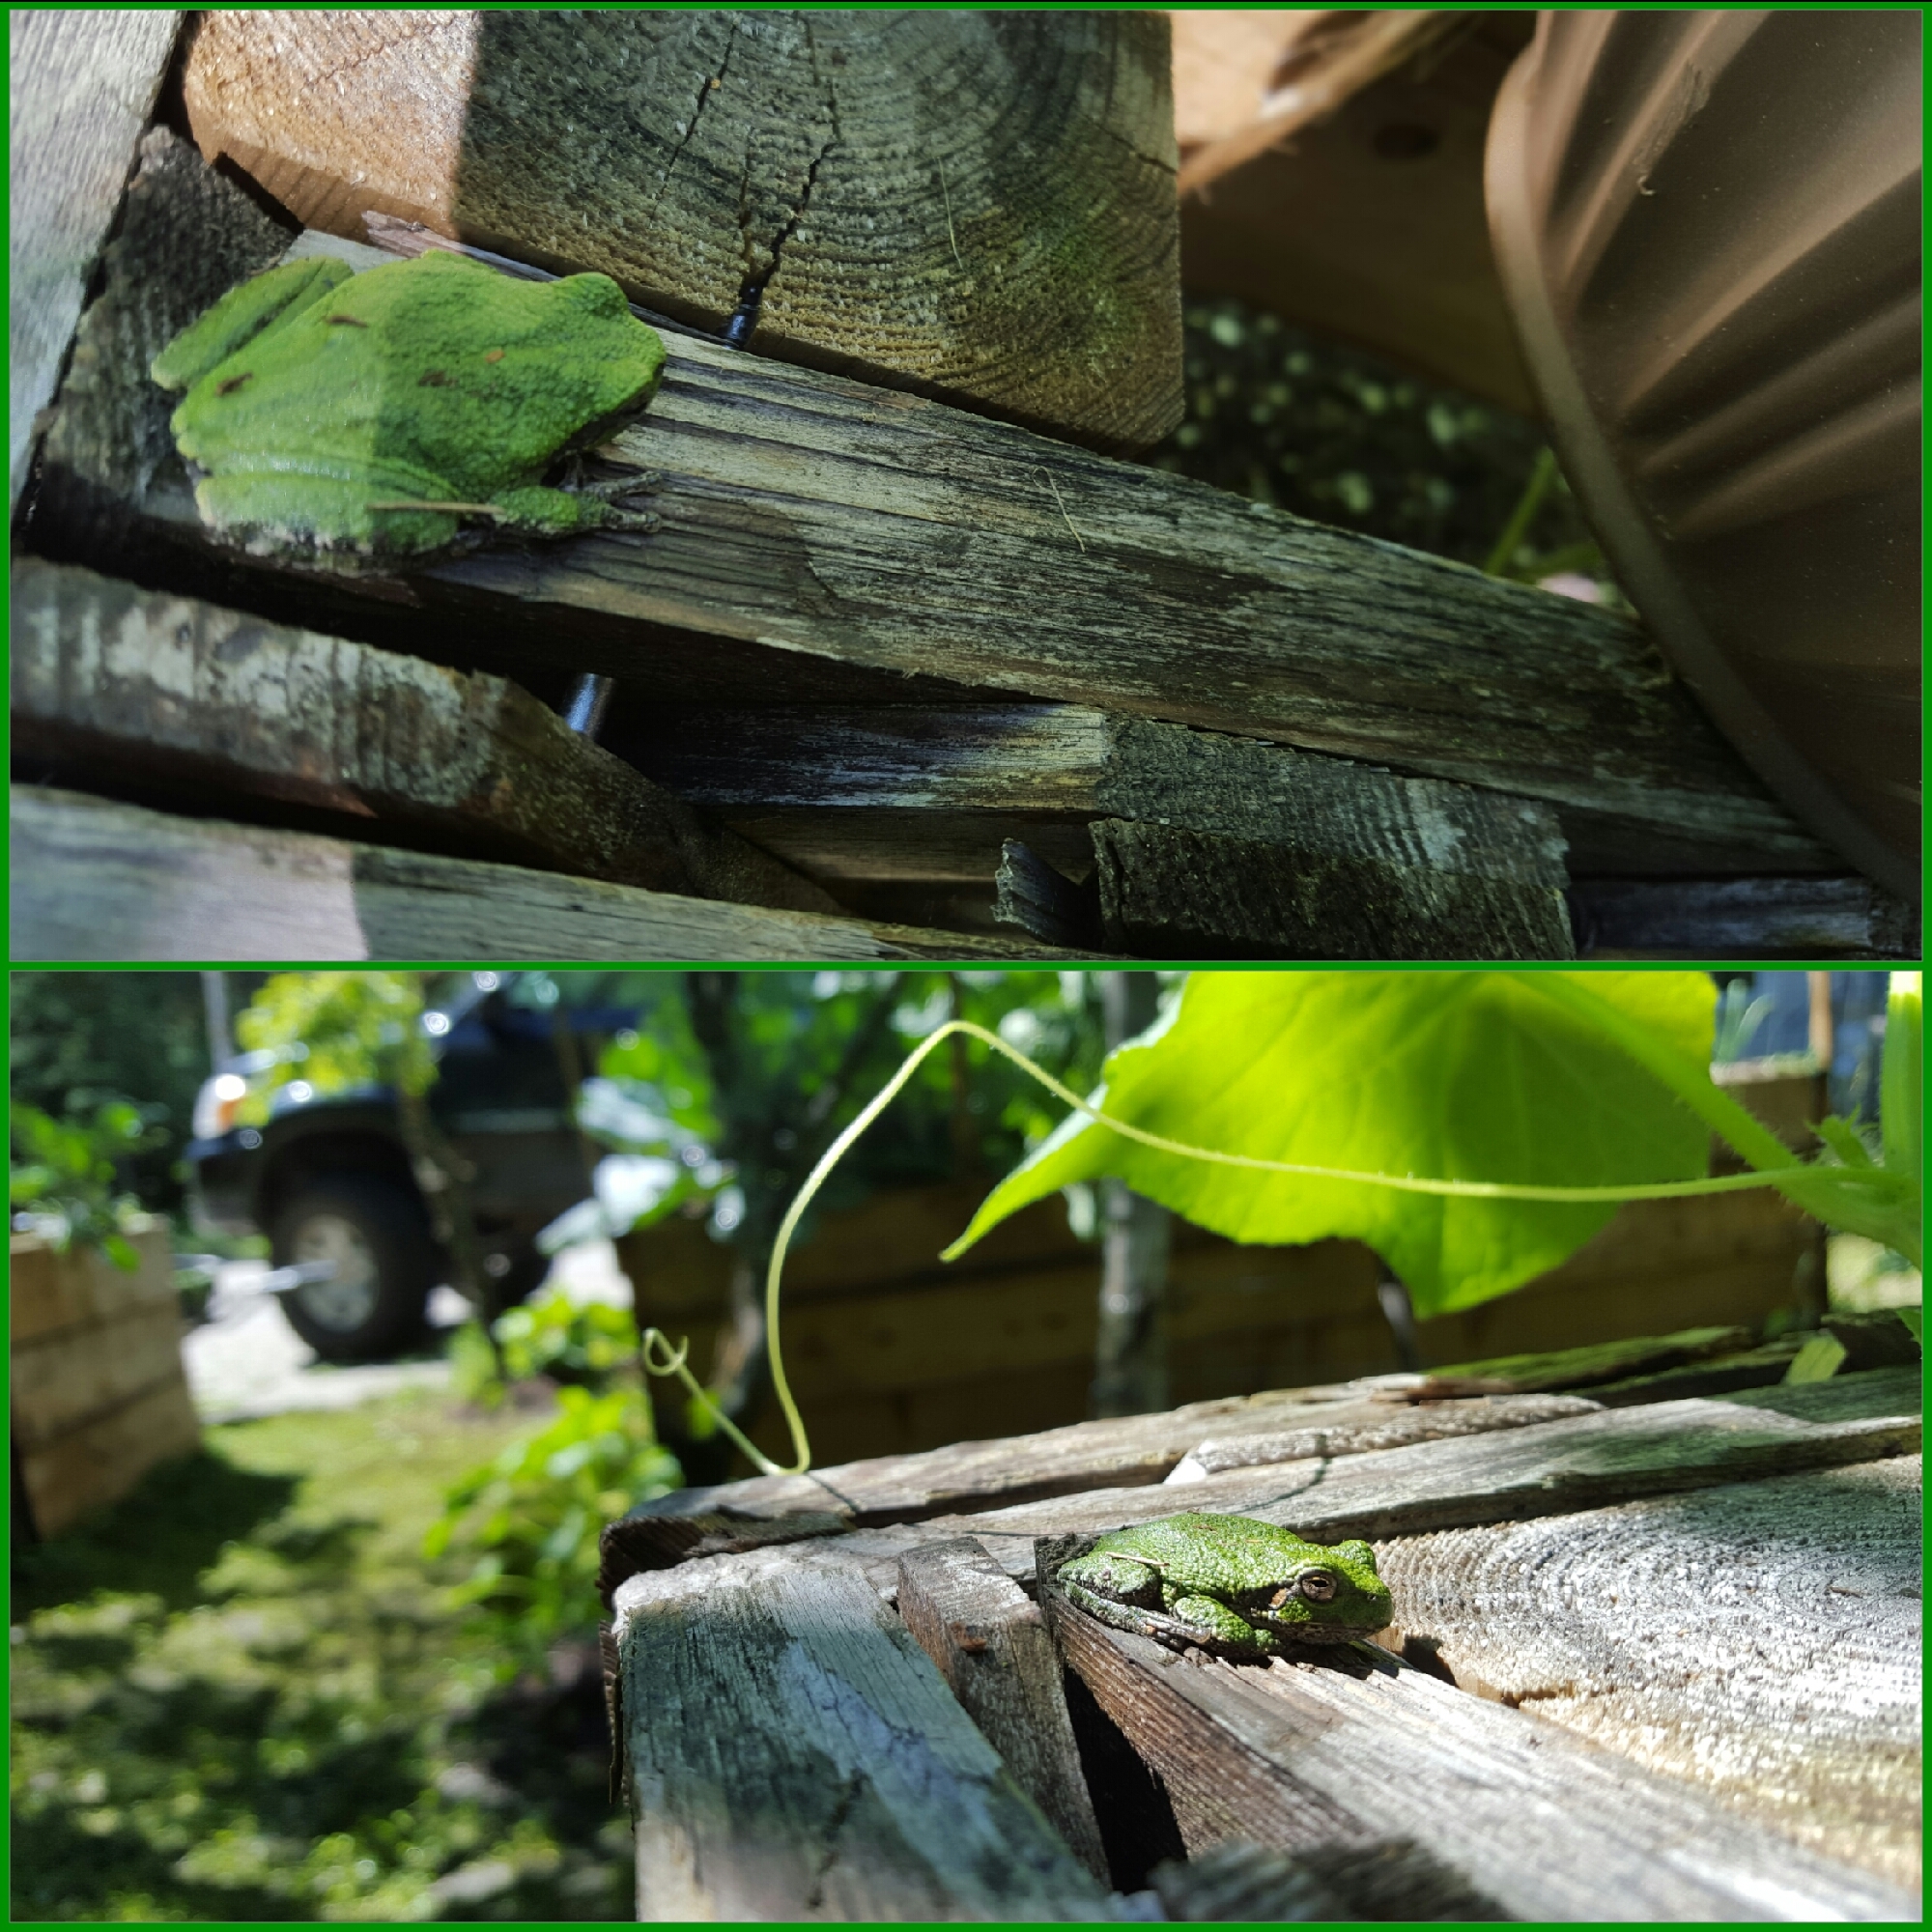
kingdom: Animalia
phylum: Chordata
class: Amphibia
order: Anura
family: Hylidae
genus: Dryophytes
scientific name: Dryophytes versicolor
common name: Gray treefrog
